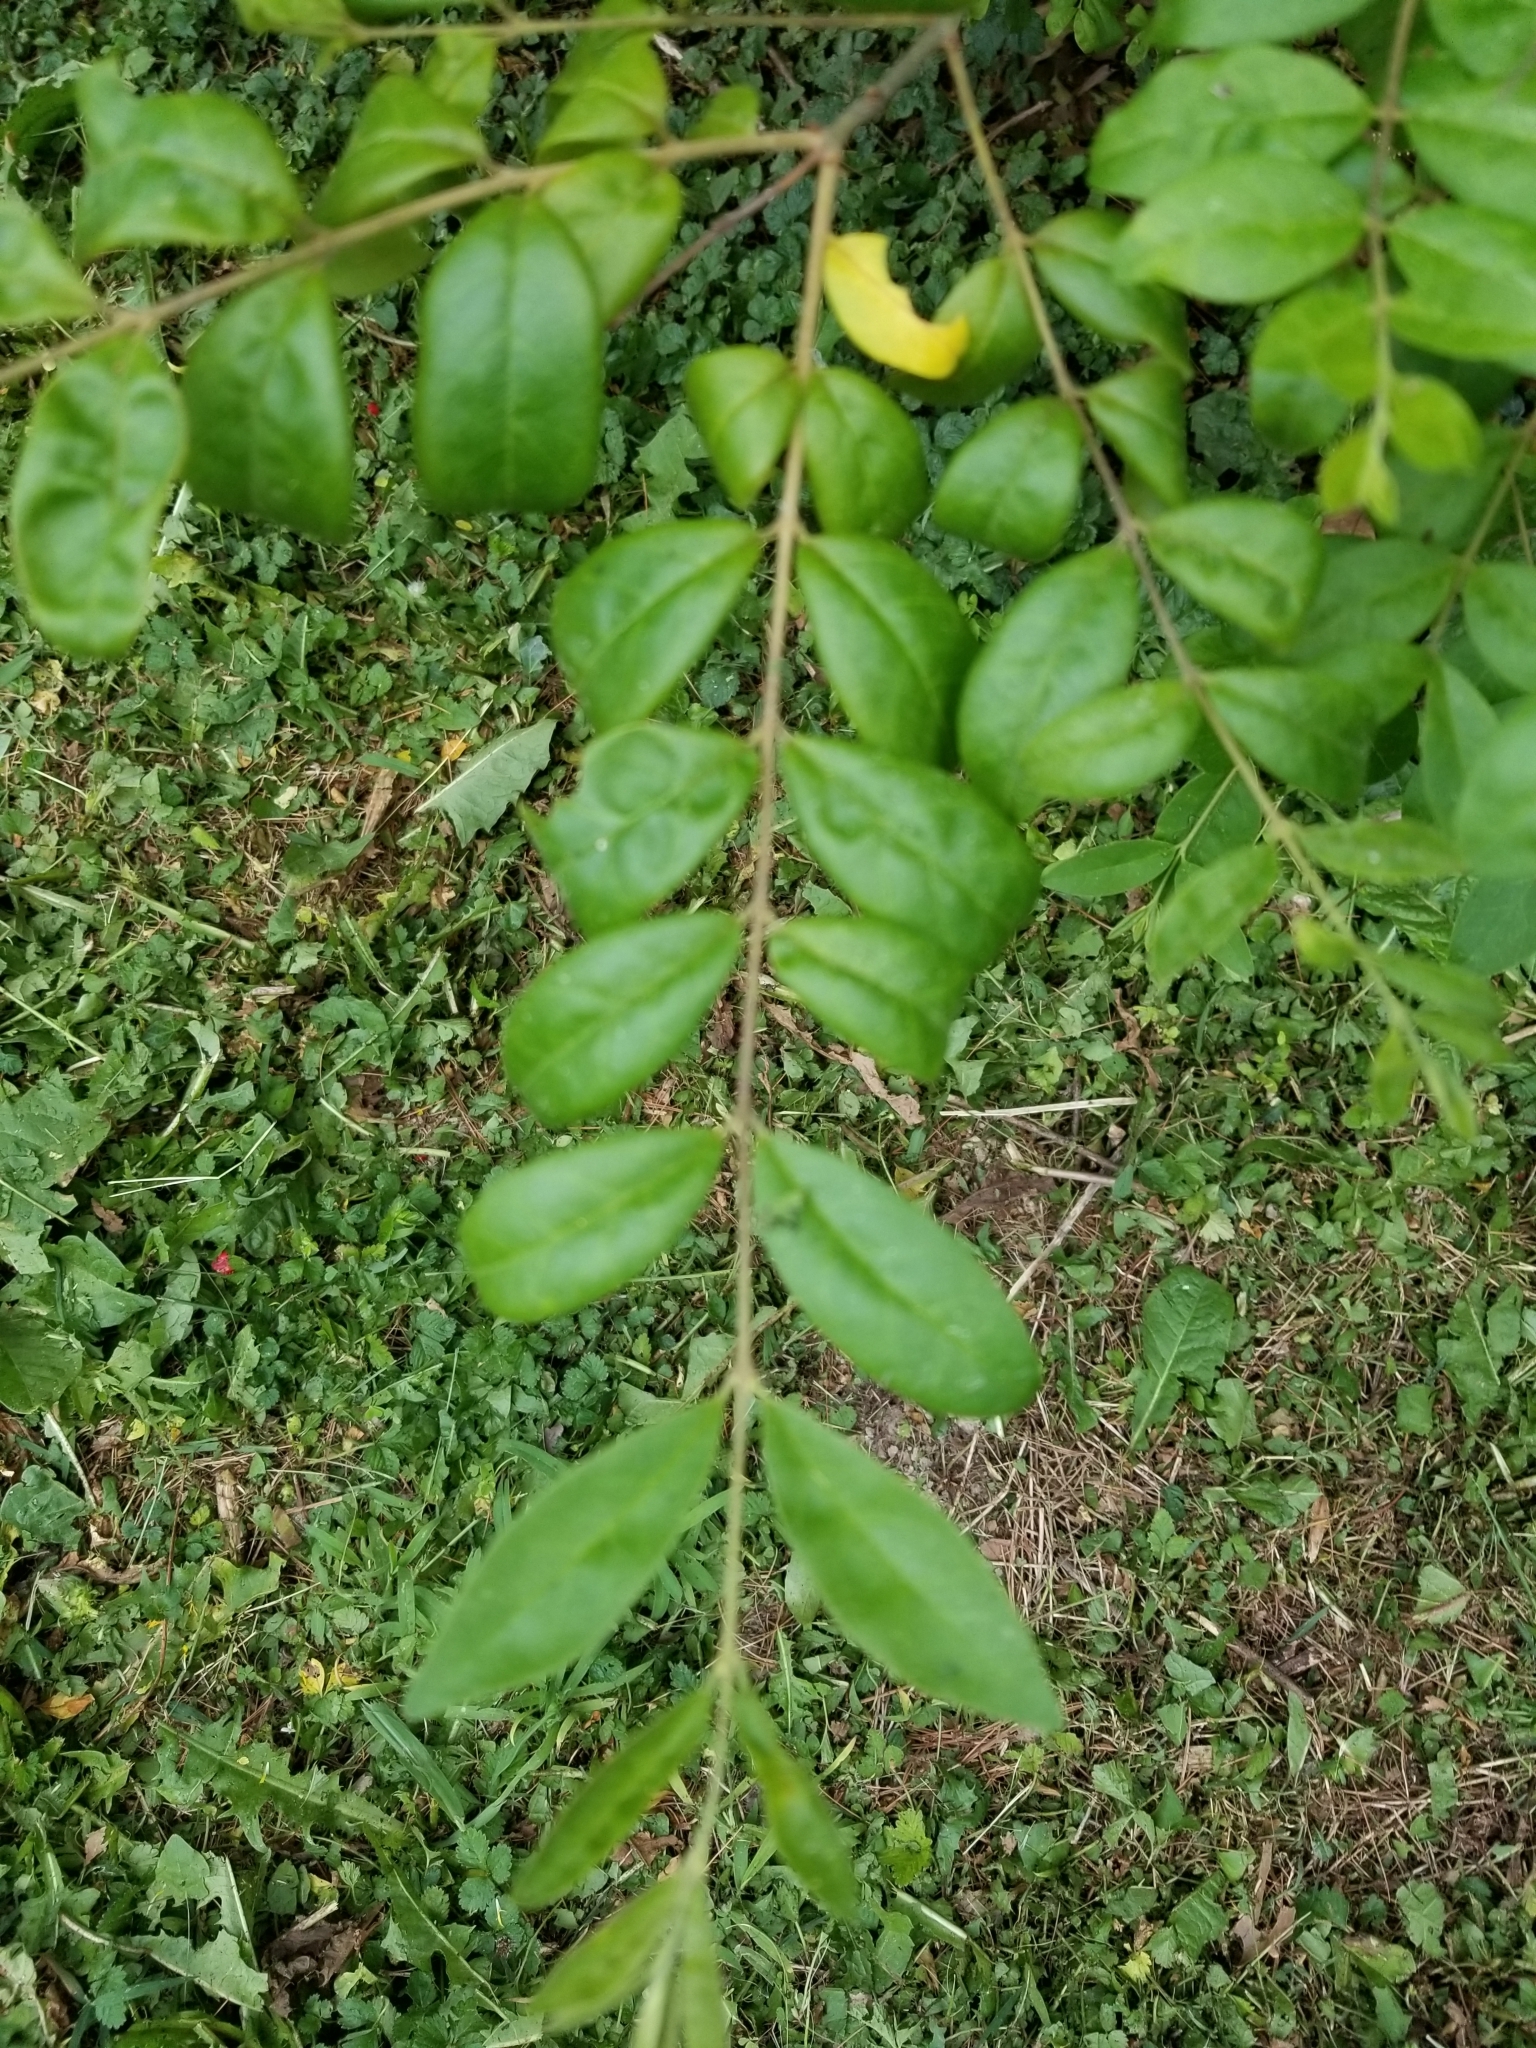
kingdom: Plantae
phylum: Tracheophyta
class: Magnoliopsida
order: Lamiales
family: Oleaceae
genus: Ligustrum
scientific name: Ligustrum sinense
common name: Chinese privet
